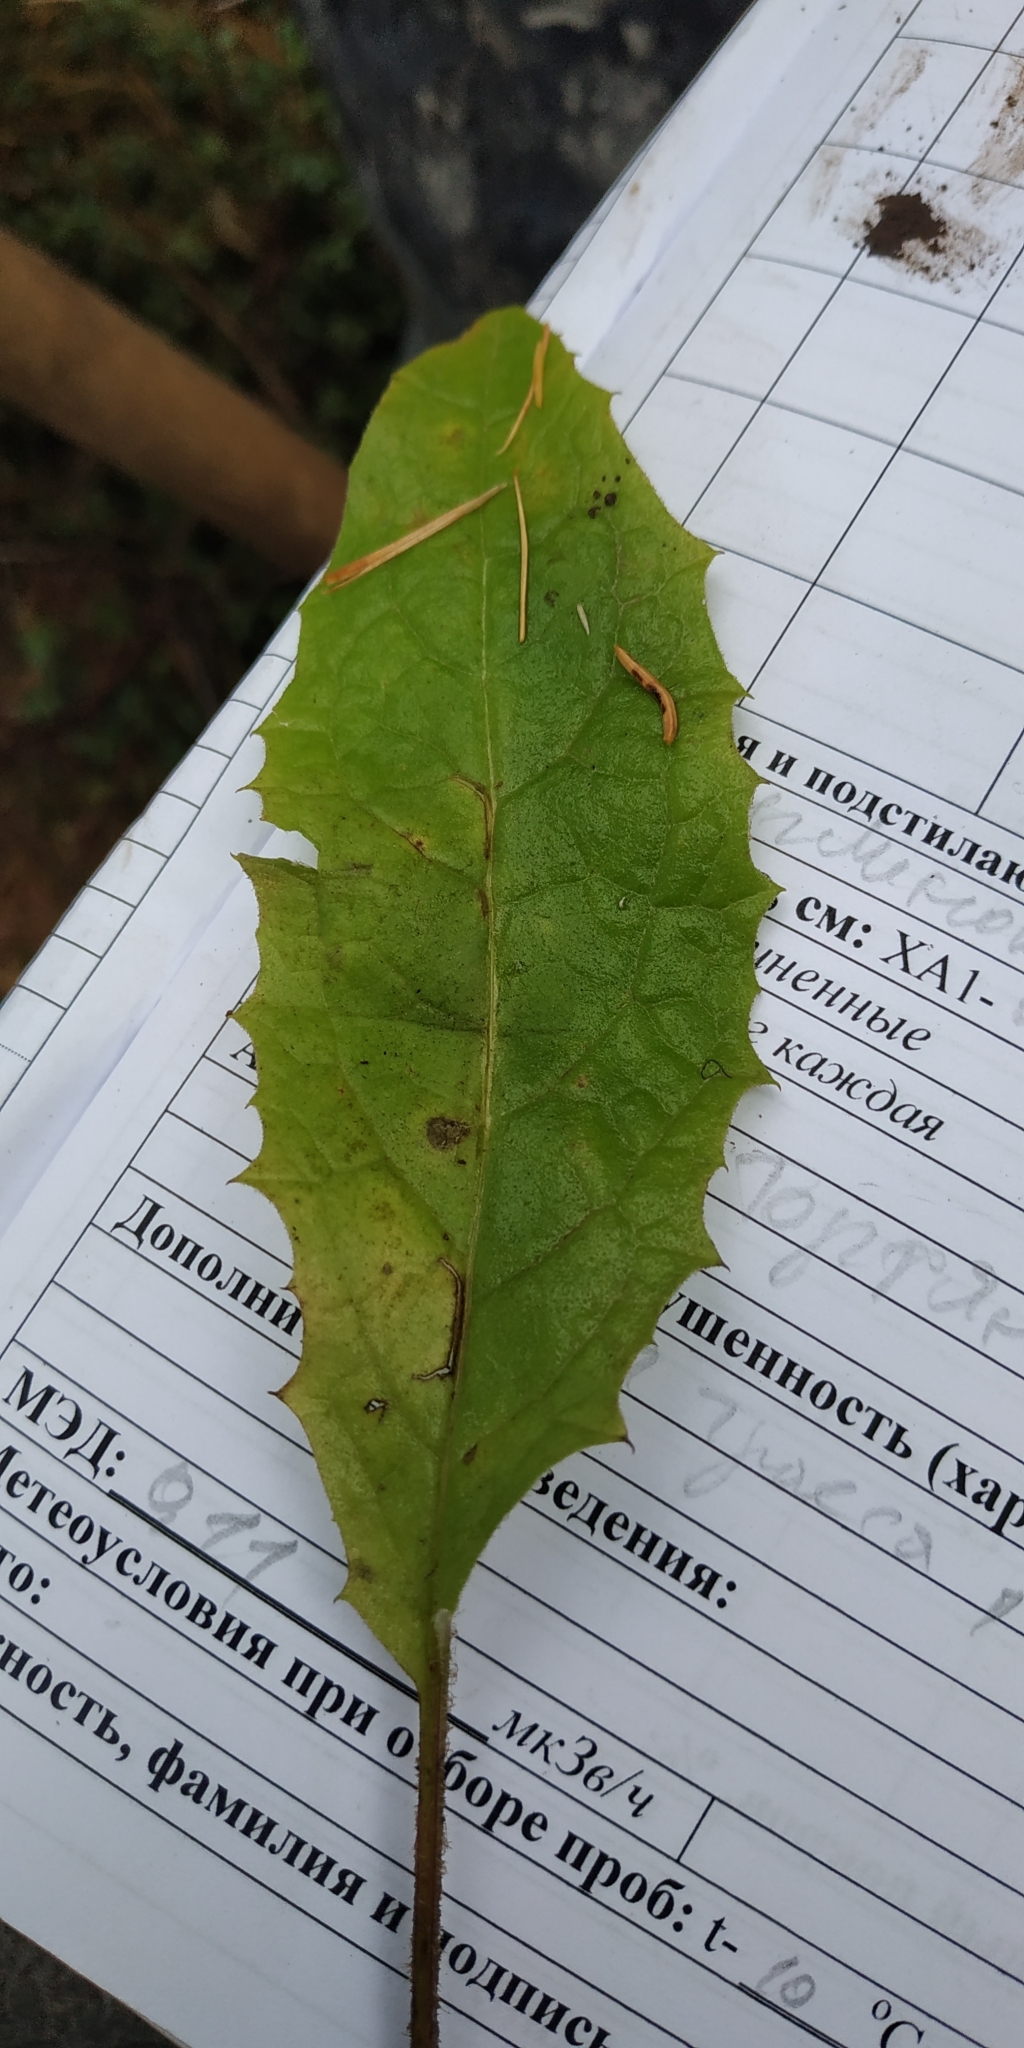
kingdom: Plantae
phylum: Tracheophyta
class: Magnoliopsida
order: Asterales
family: Asteraceae
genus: Crepis
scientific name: Crepis sibirica
